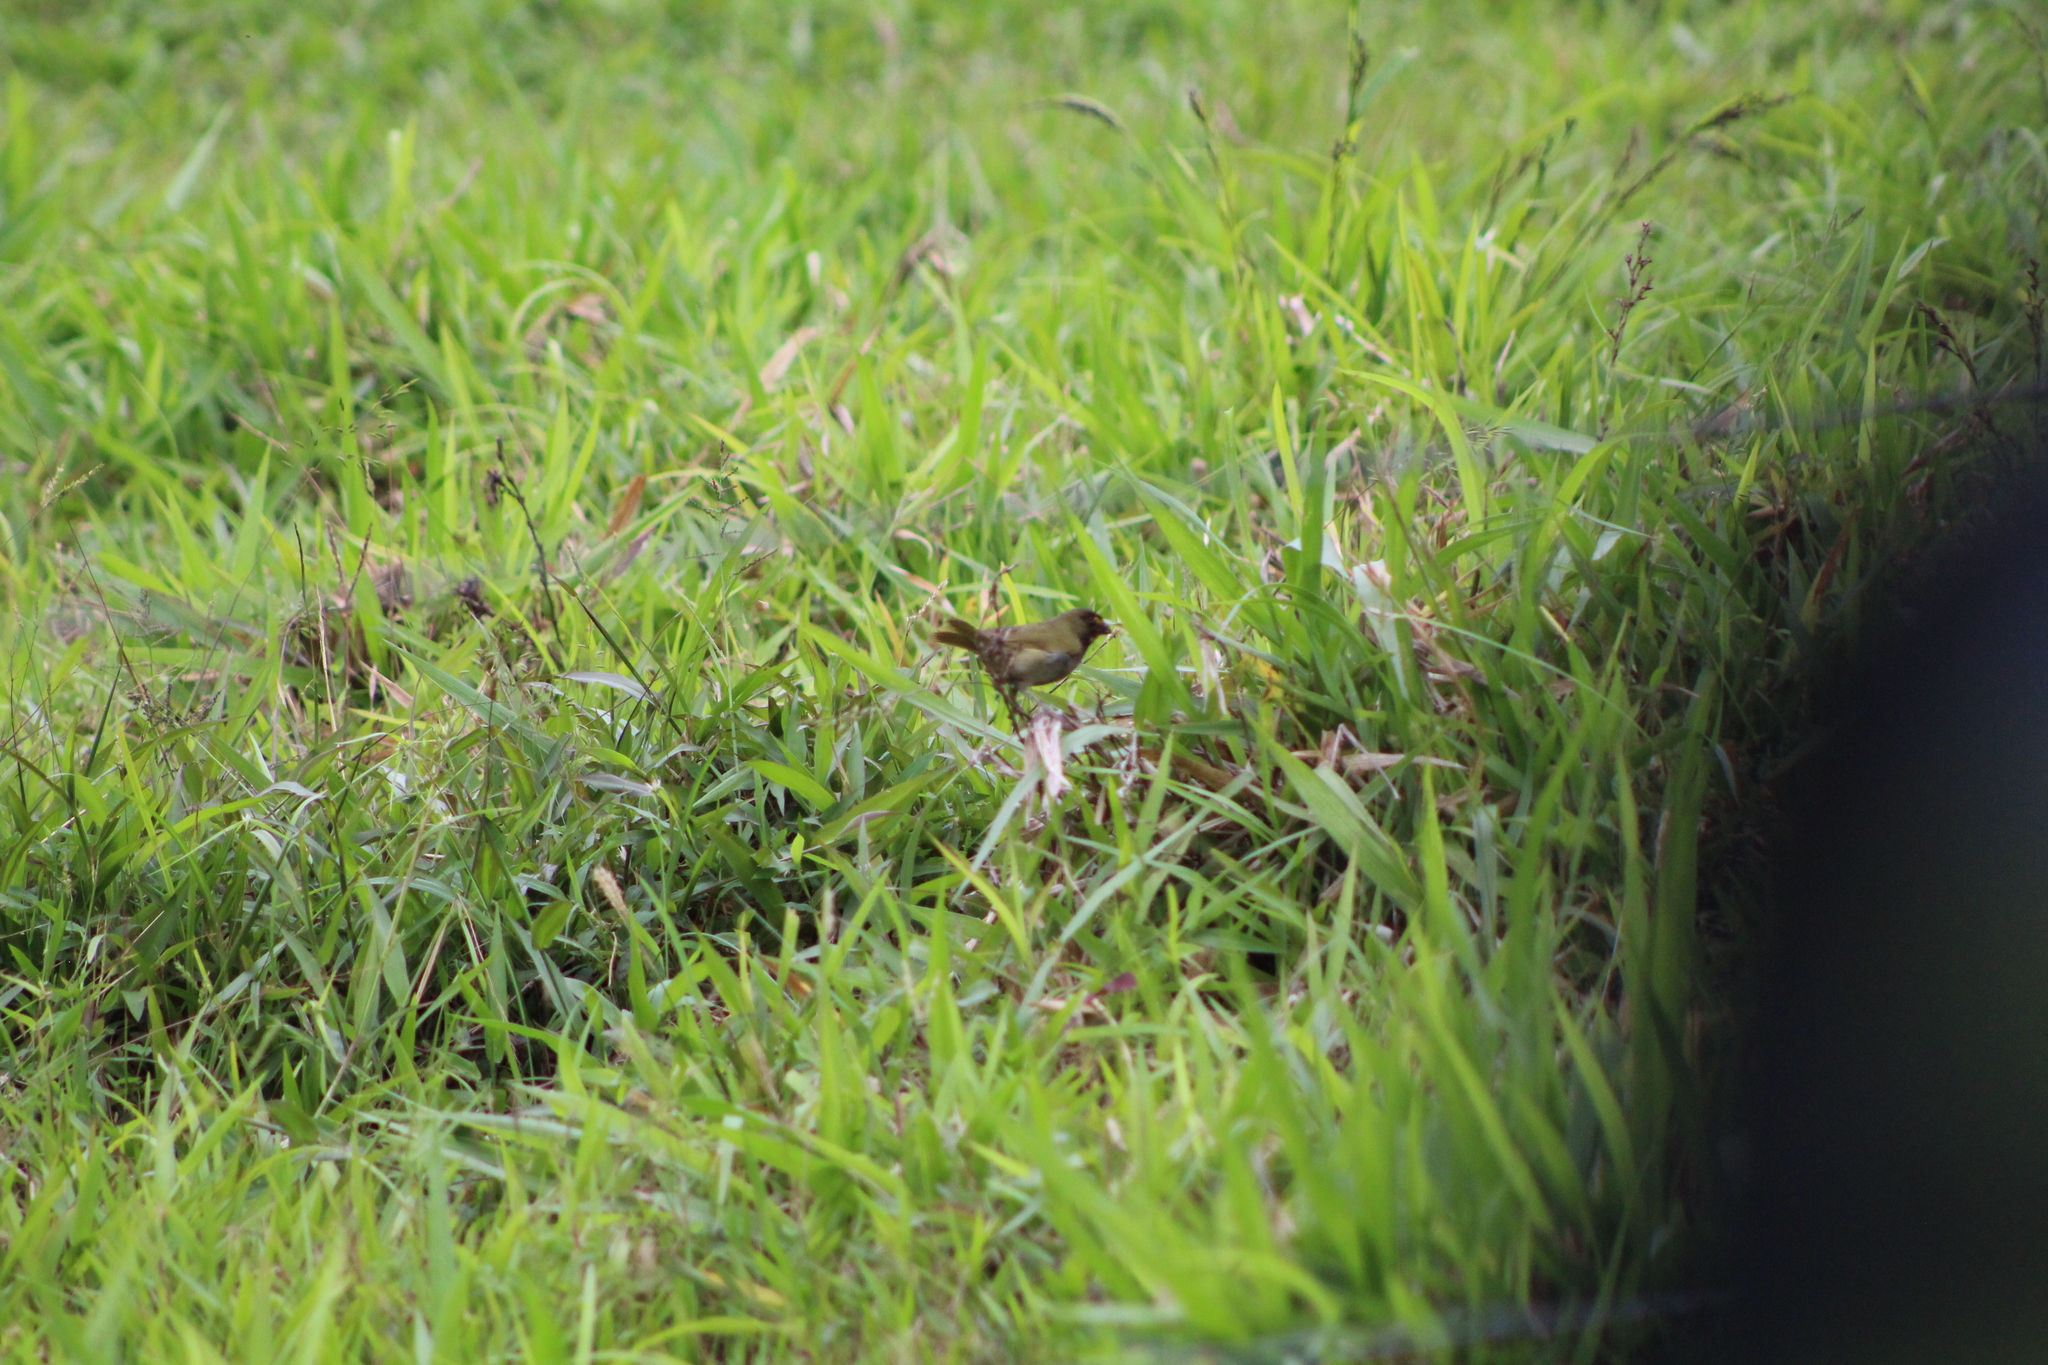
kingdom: Animalia
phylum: Chordata
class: Aves
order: Passeriformes
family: Thraupidae
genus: Tiaris
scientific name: Tiaris olivaceus
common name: Yellow-faced grassquit
